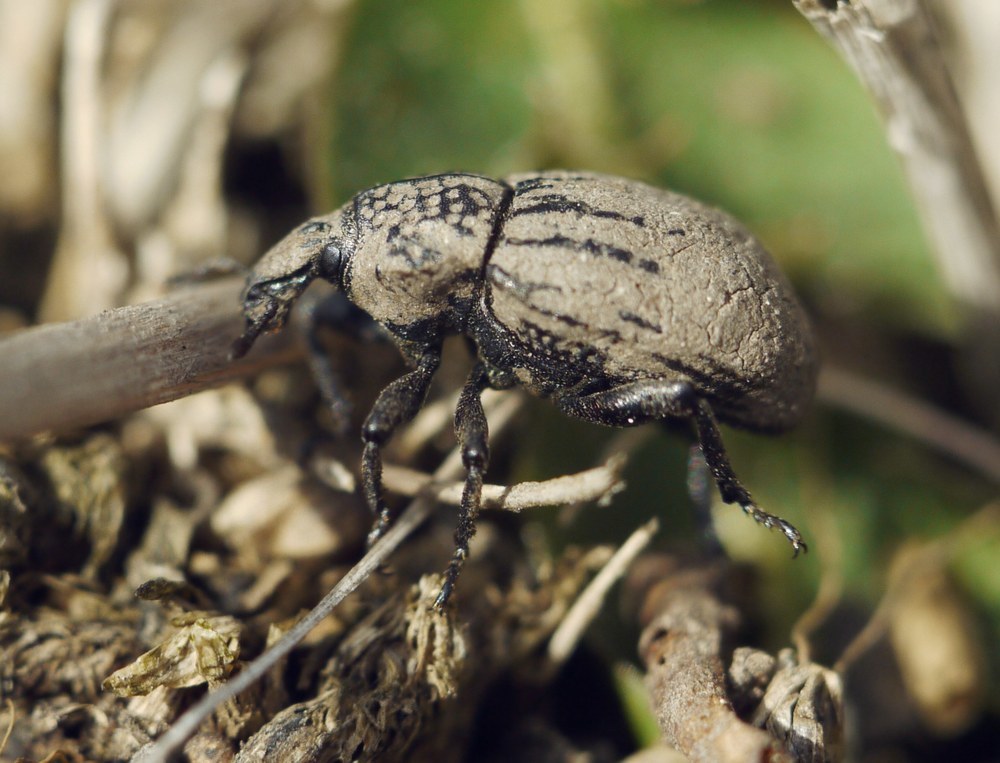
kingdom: Animalia
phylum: Arthropoda
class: Insecta
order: Coleoptera
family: Curculionidae
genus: Minyops
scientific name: Minyops minutus
